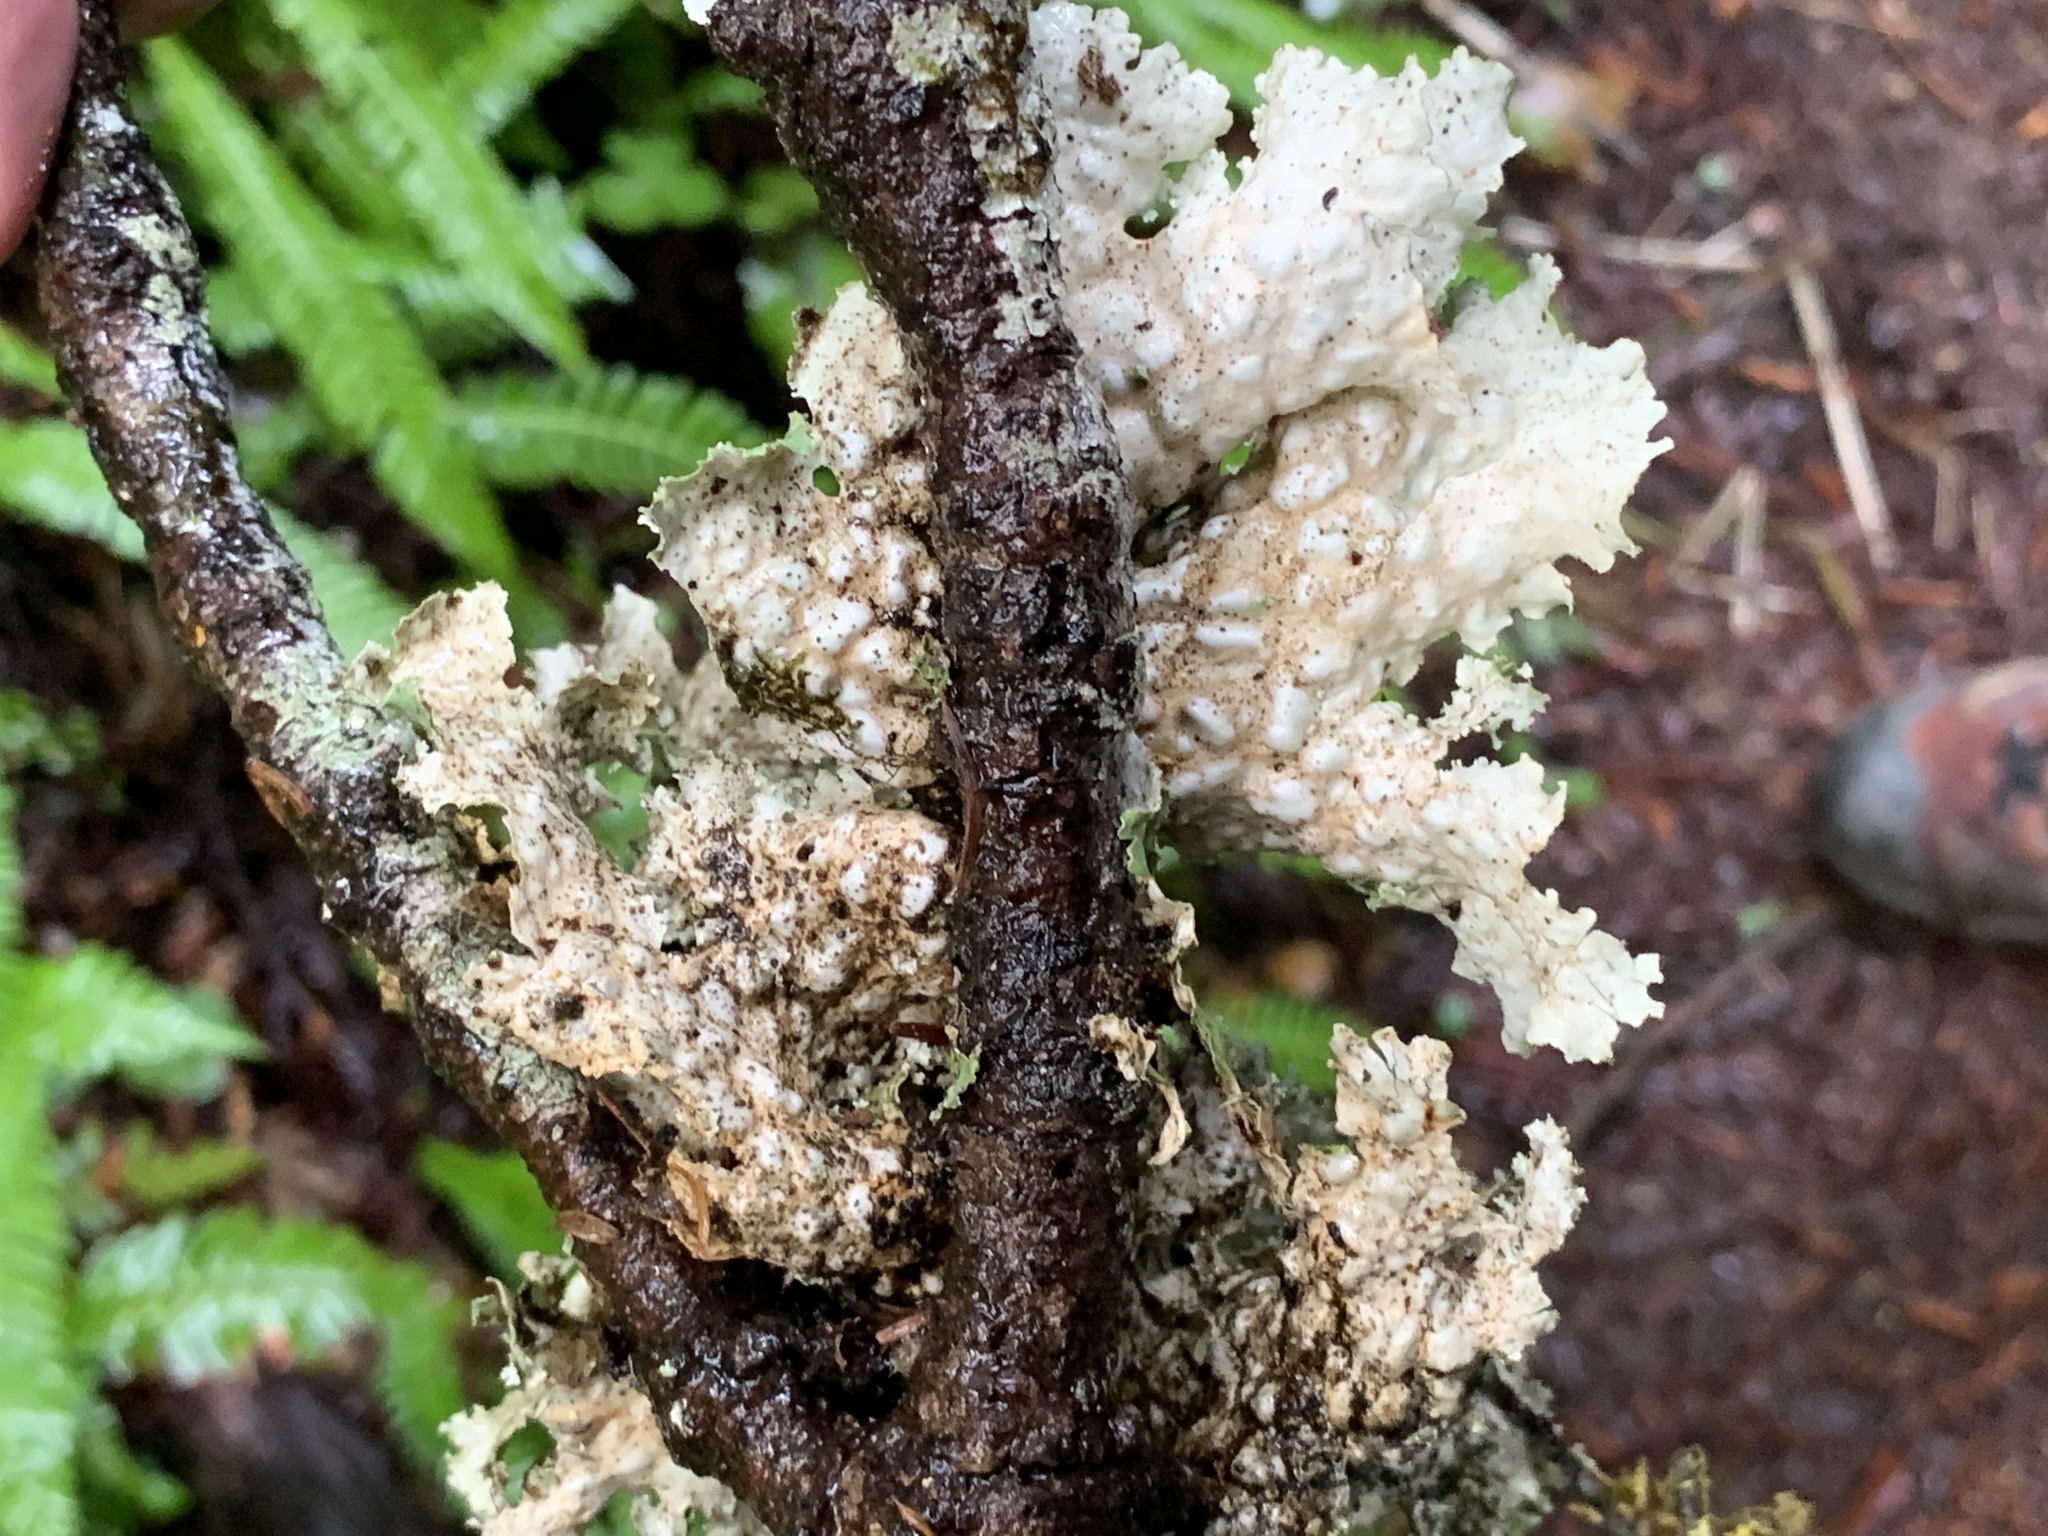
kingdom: Fungi
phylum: Ascomycota
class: Lecanoromycetes
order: Peltigerales
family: Lobariaceae
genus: Lobaria
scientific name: Lobaria oregana
